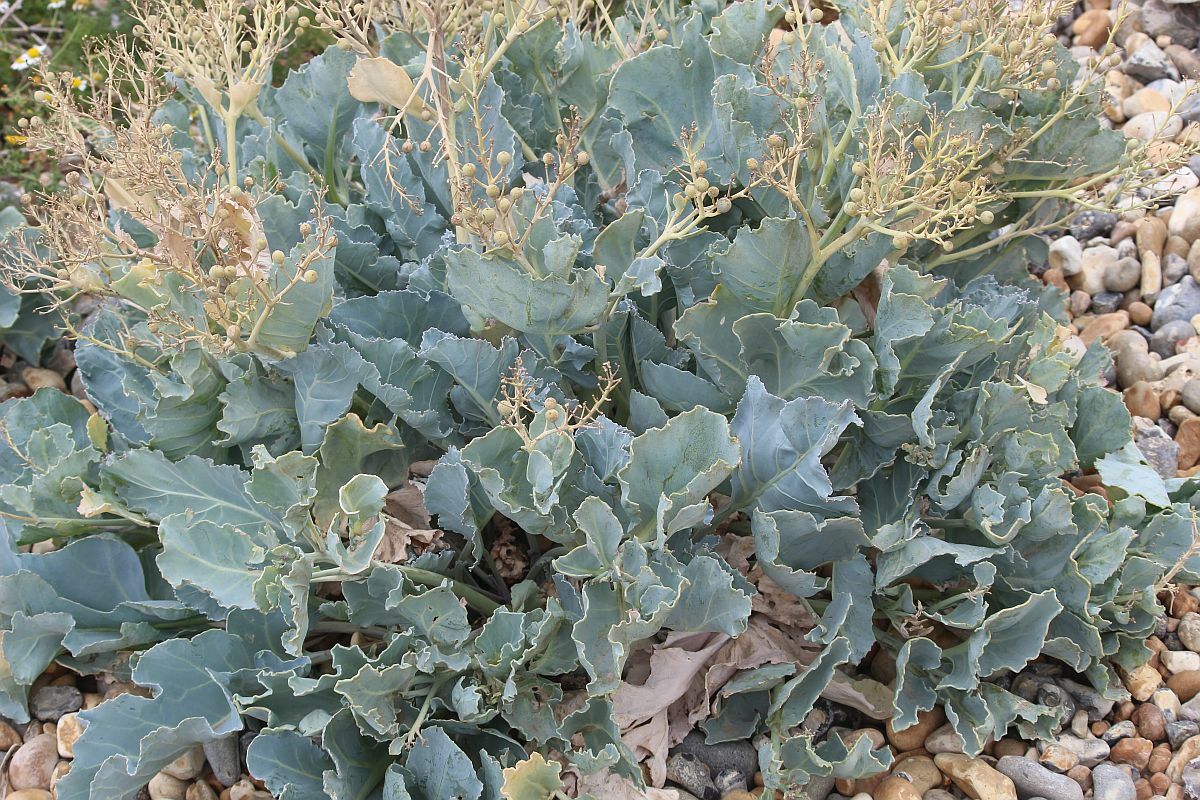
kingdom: Plantae
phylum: Tracheophyta
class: Magnoliopsida
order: Brassicales
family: Brassicaceae
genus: Crambe
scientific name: Crambe maritima
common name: Sea-kale
